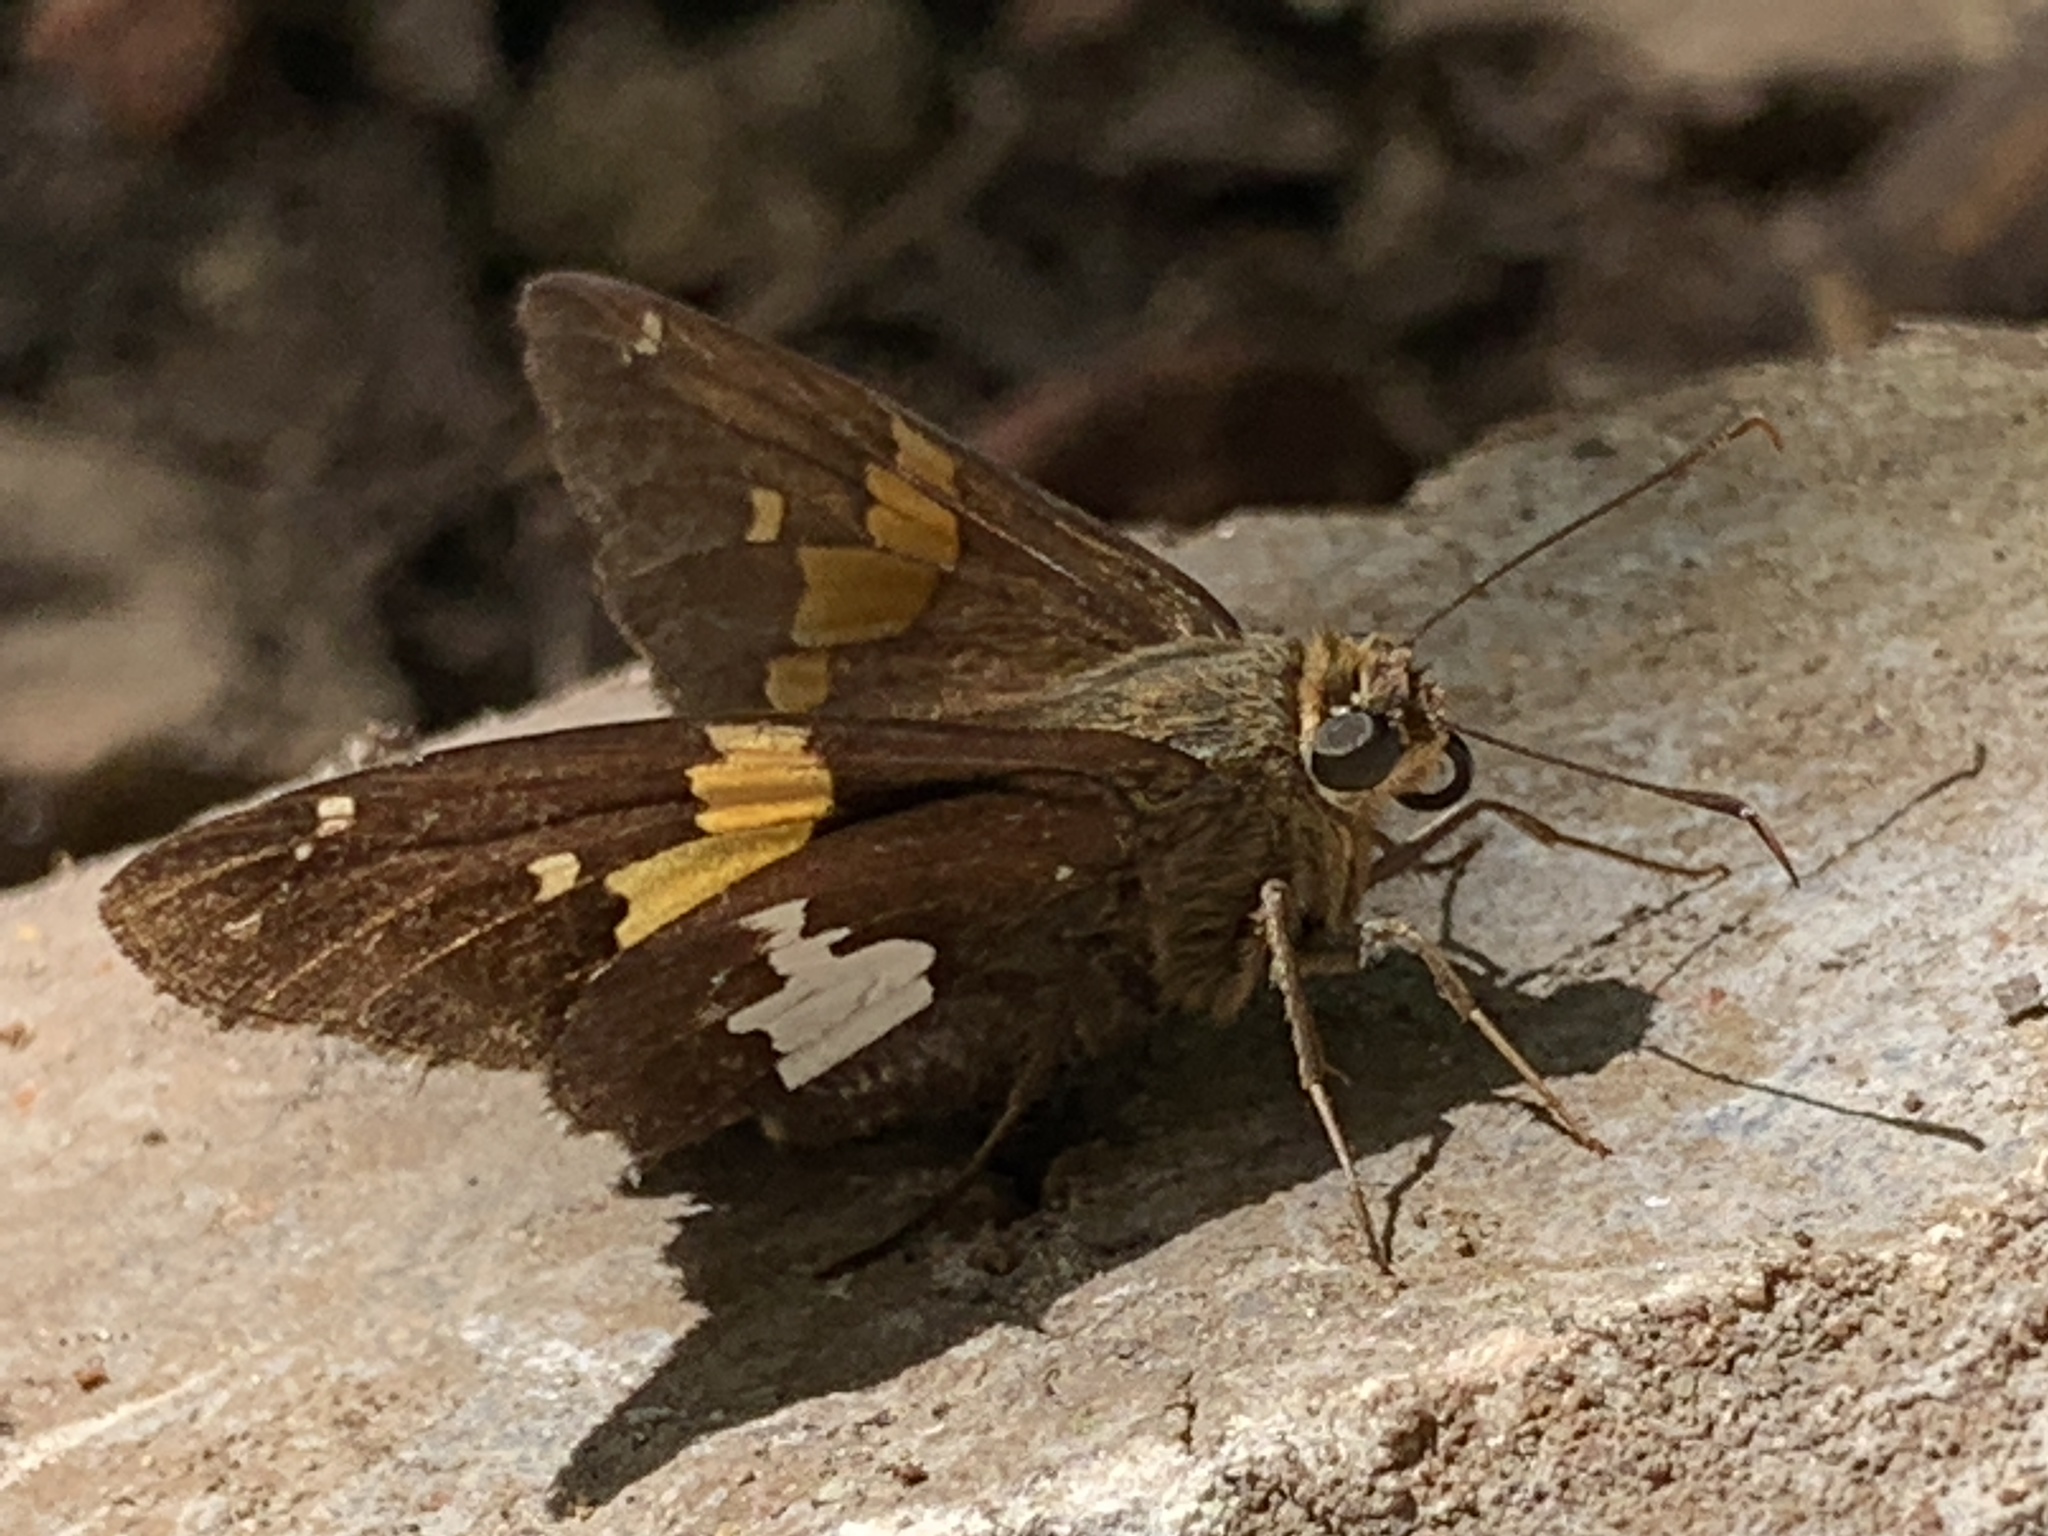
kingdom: Animalia
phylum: Arthropoda
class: Insecta
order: Lepidoptera
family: Hesperiidae
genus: Epargyreus
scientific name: Epargyreus clarus
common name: Silver-spotted skipper
